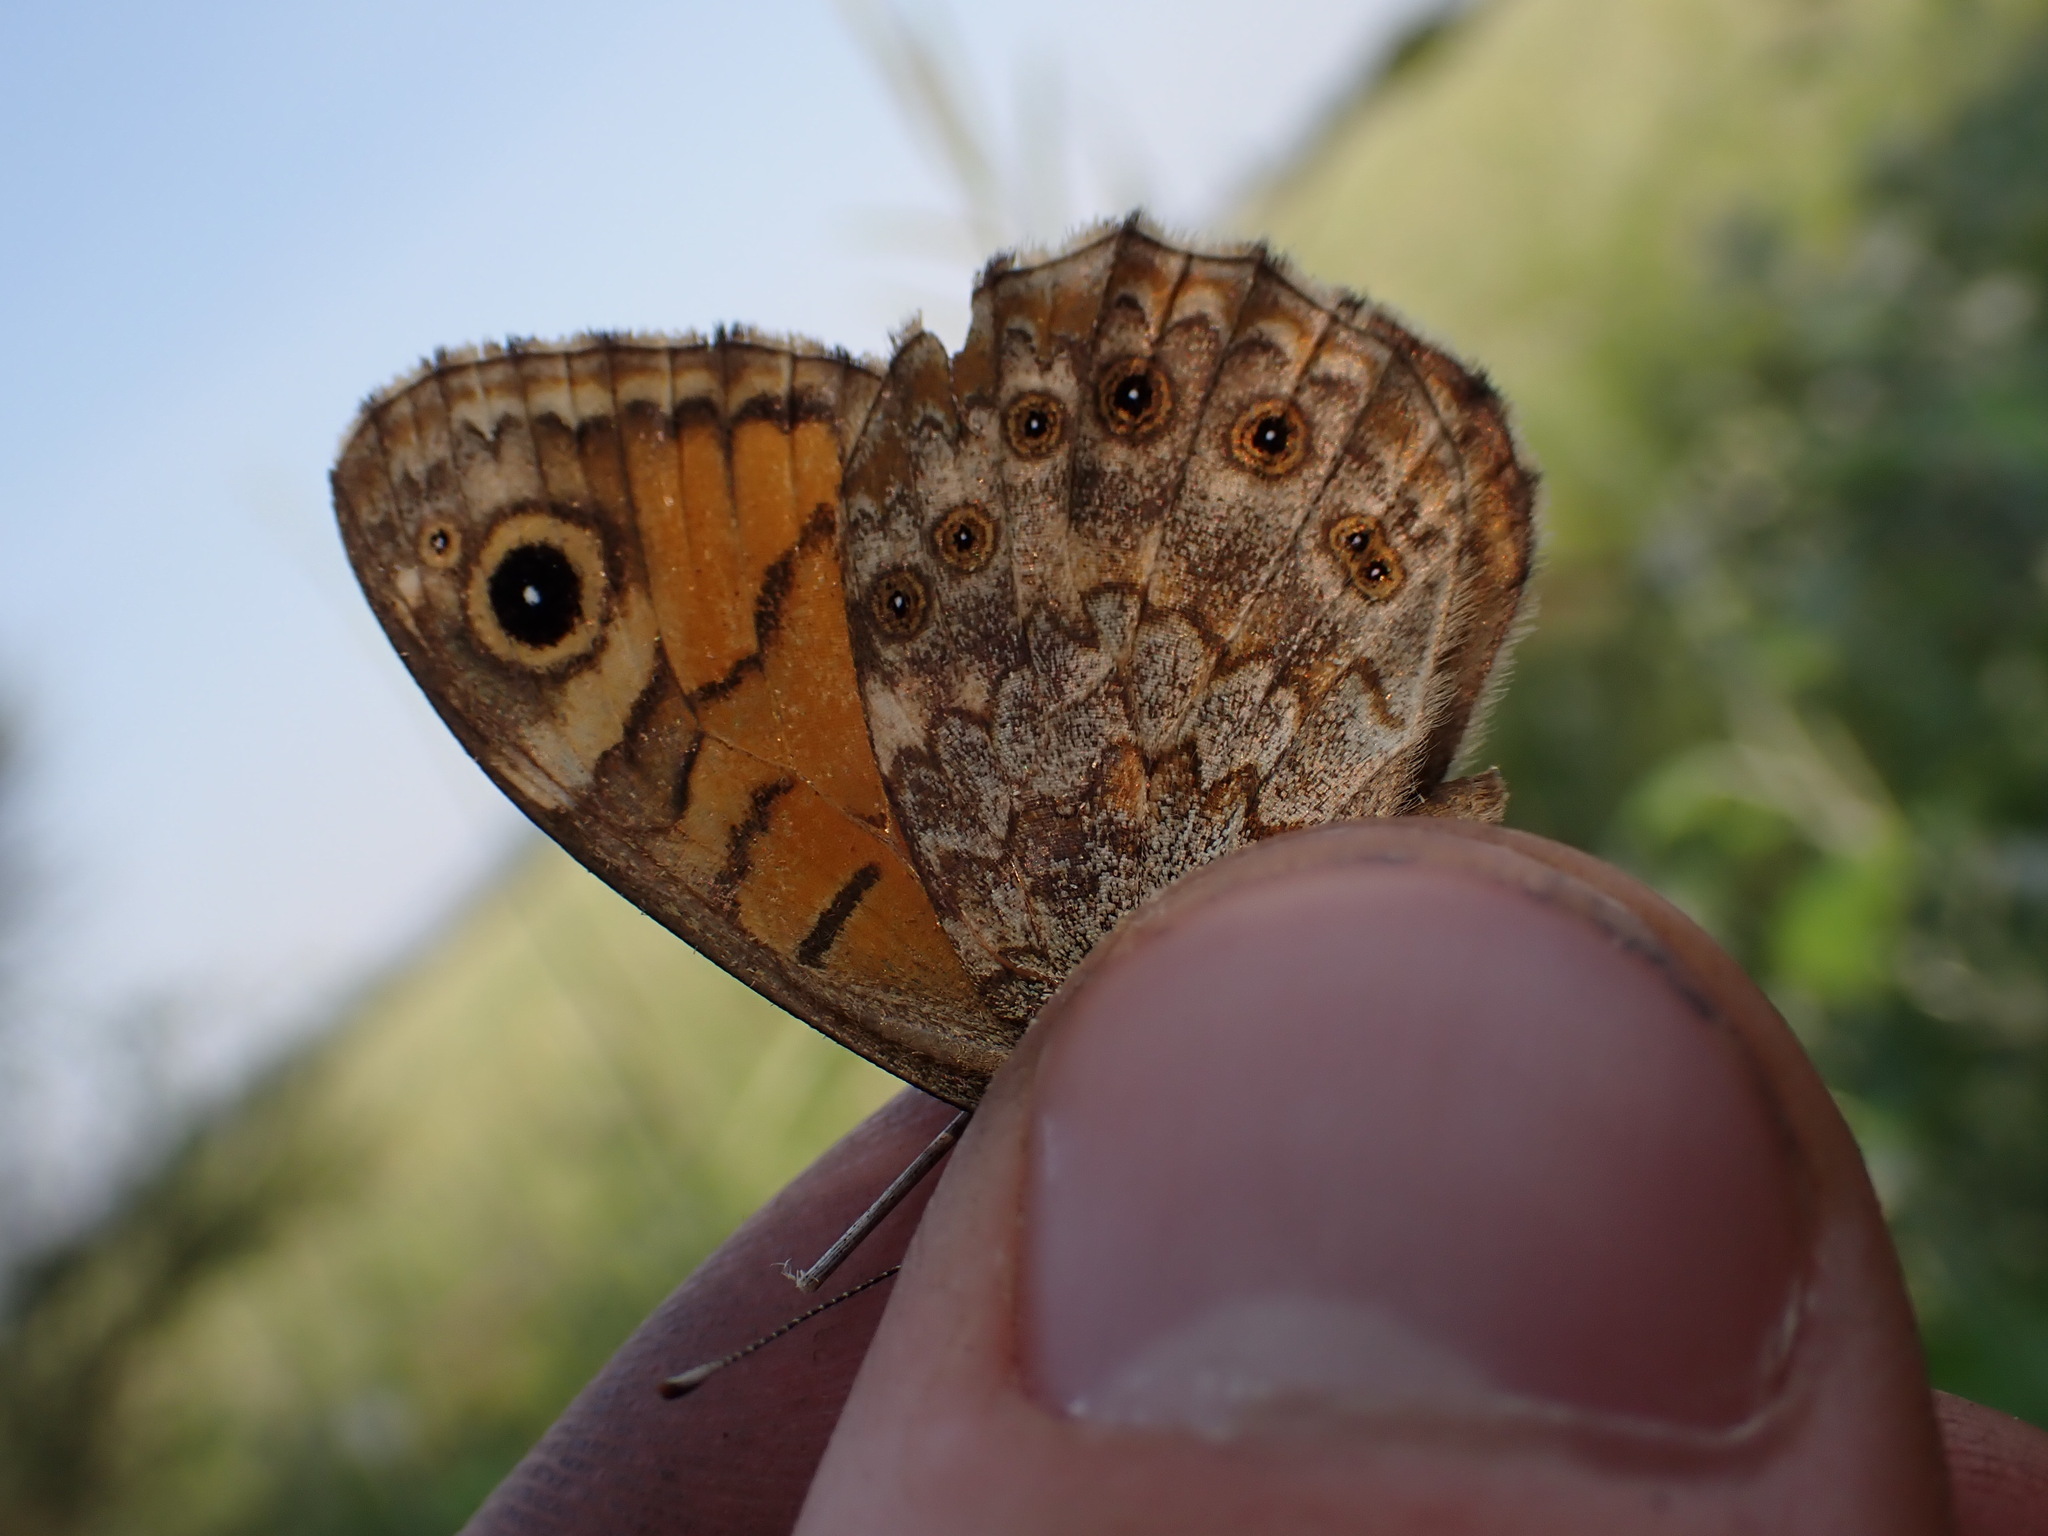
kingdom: Animalia
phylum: Arthropoda
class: Insecta
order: Lepidoptera
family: Nymphalidae
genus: Pararge
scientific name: Pararge Lasiommata megera
